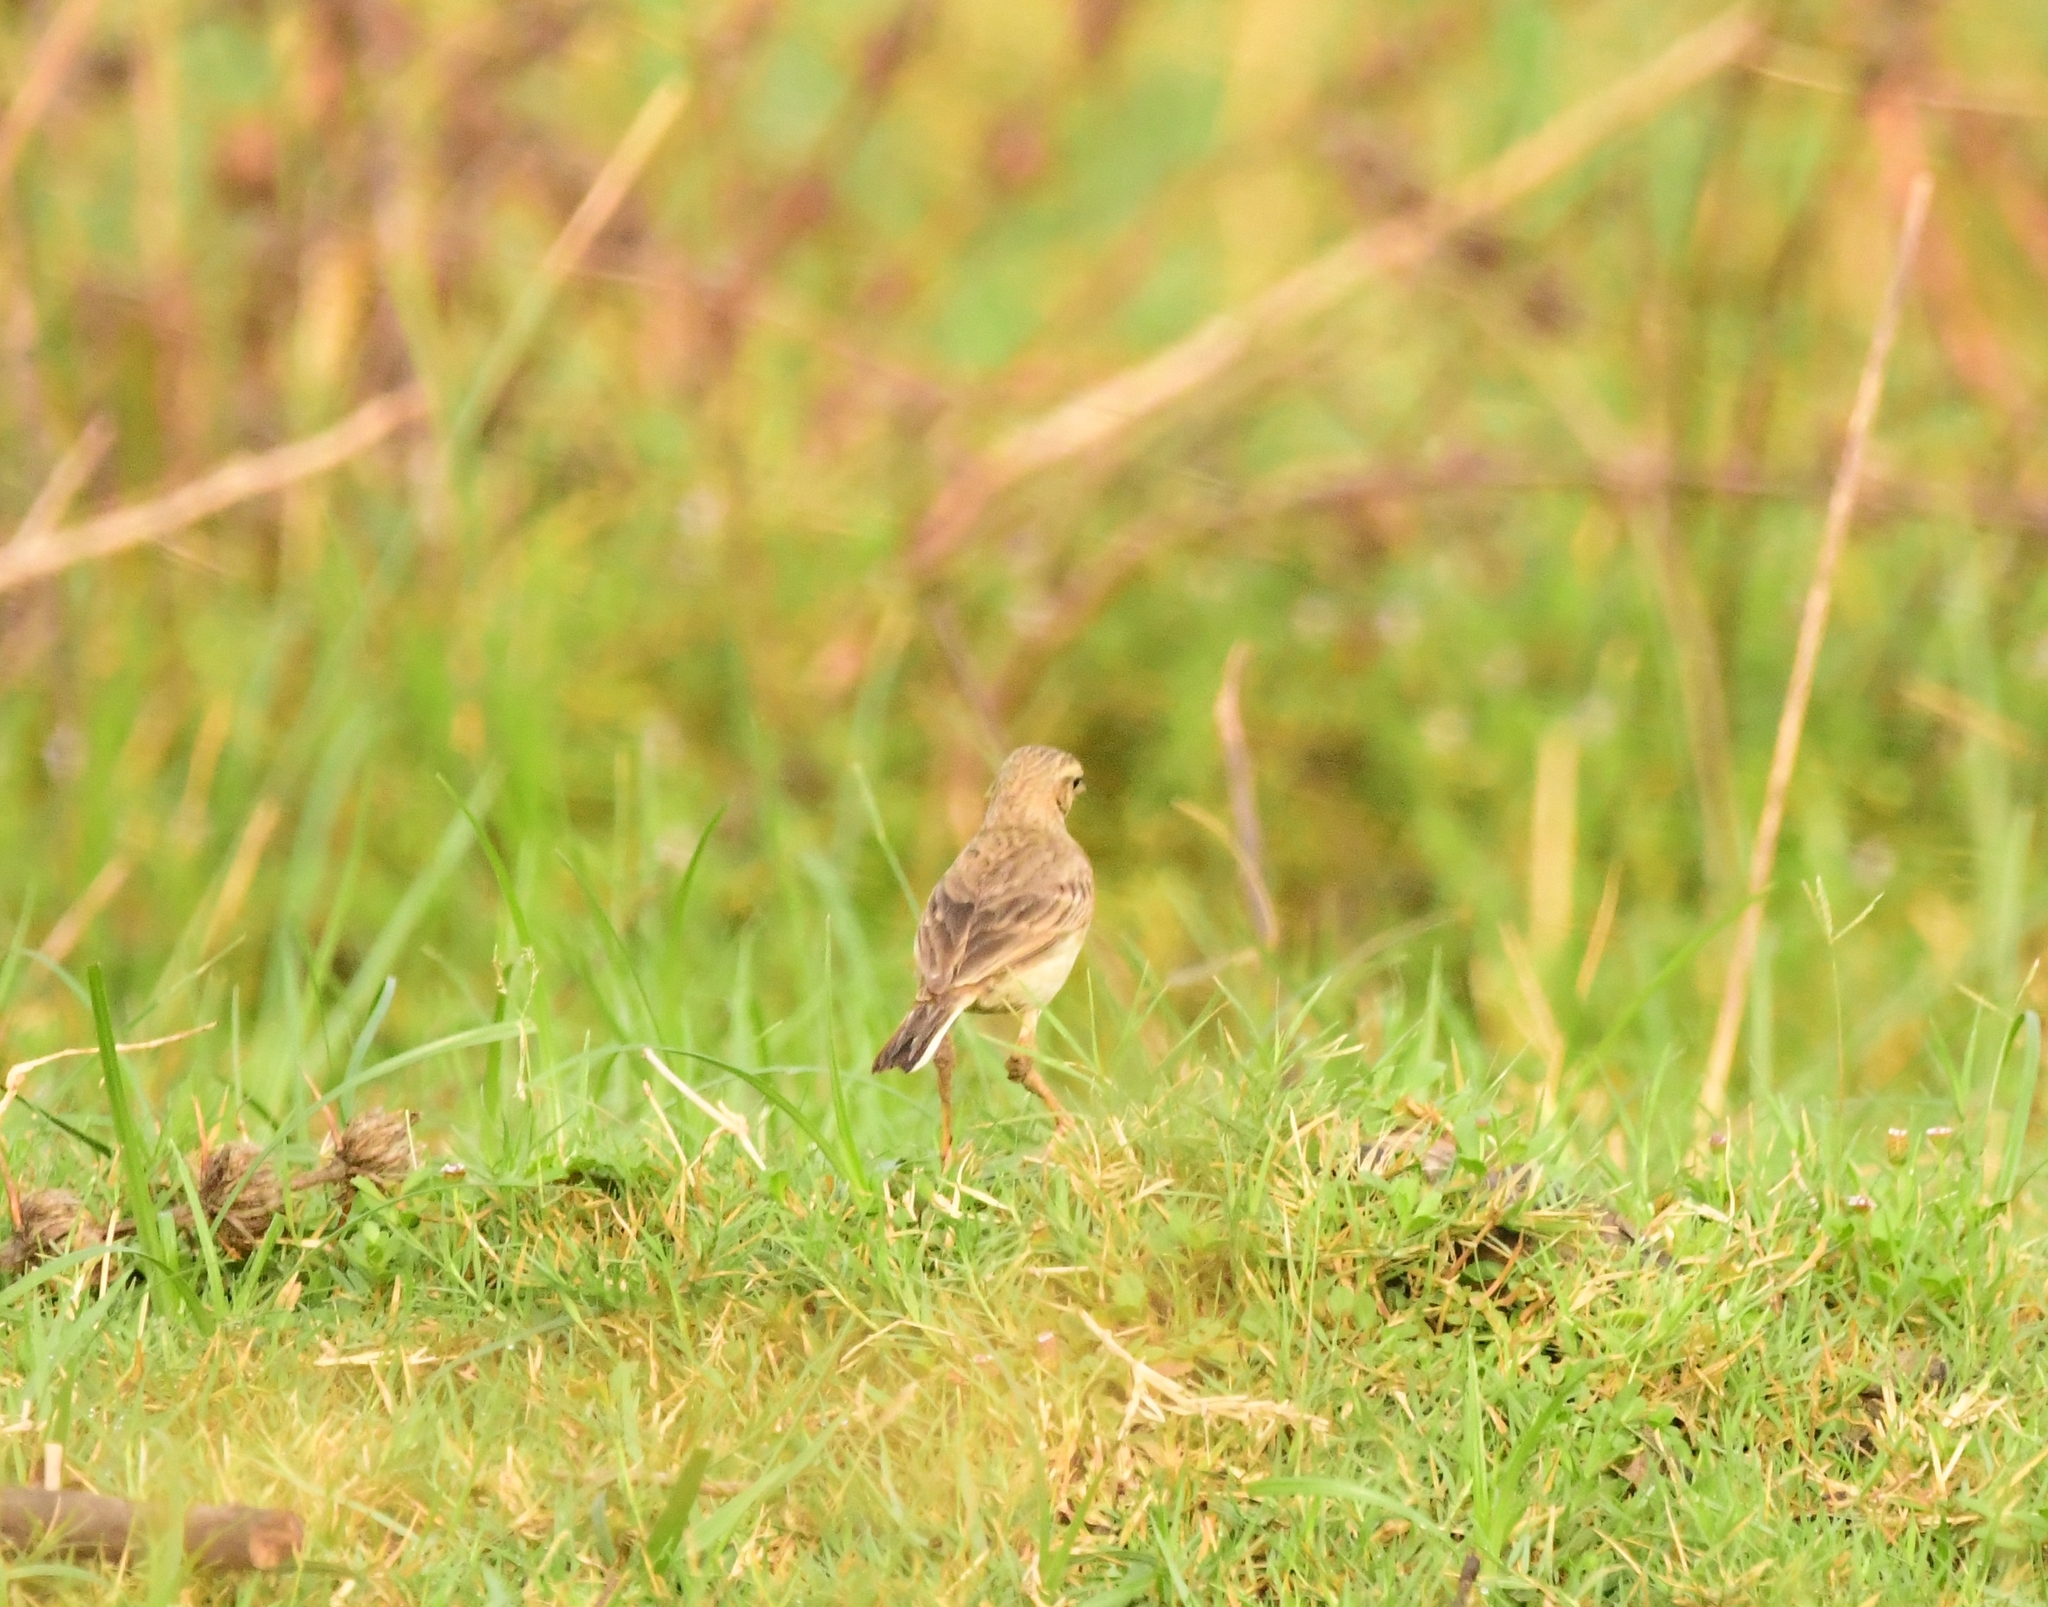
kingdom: Animalia
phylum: Chordata
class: Aves
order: Passeriformes
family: Motacillidae
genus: Anthus
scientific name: Anthus rufulus
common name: Paddyfield pipit
